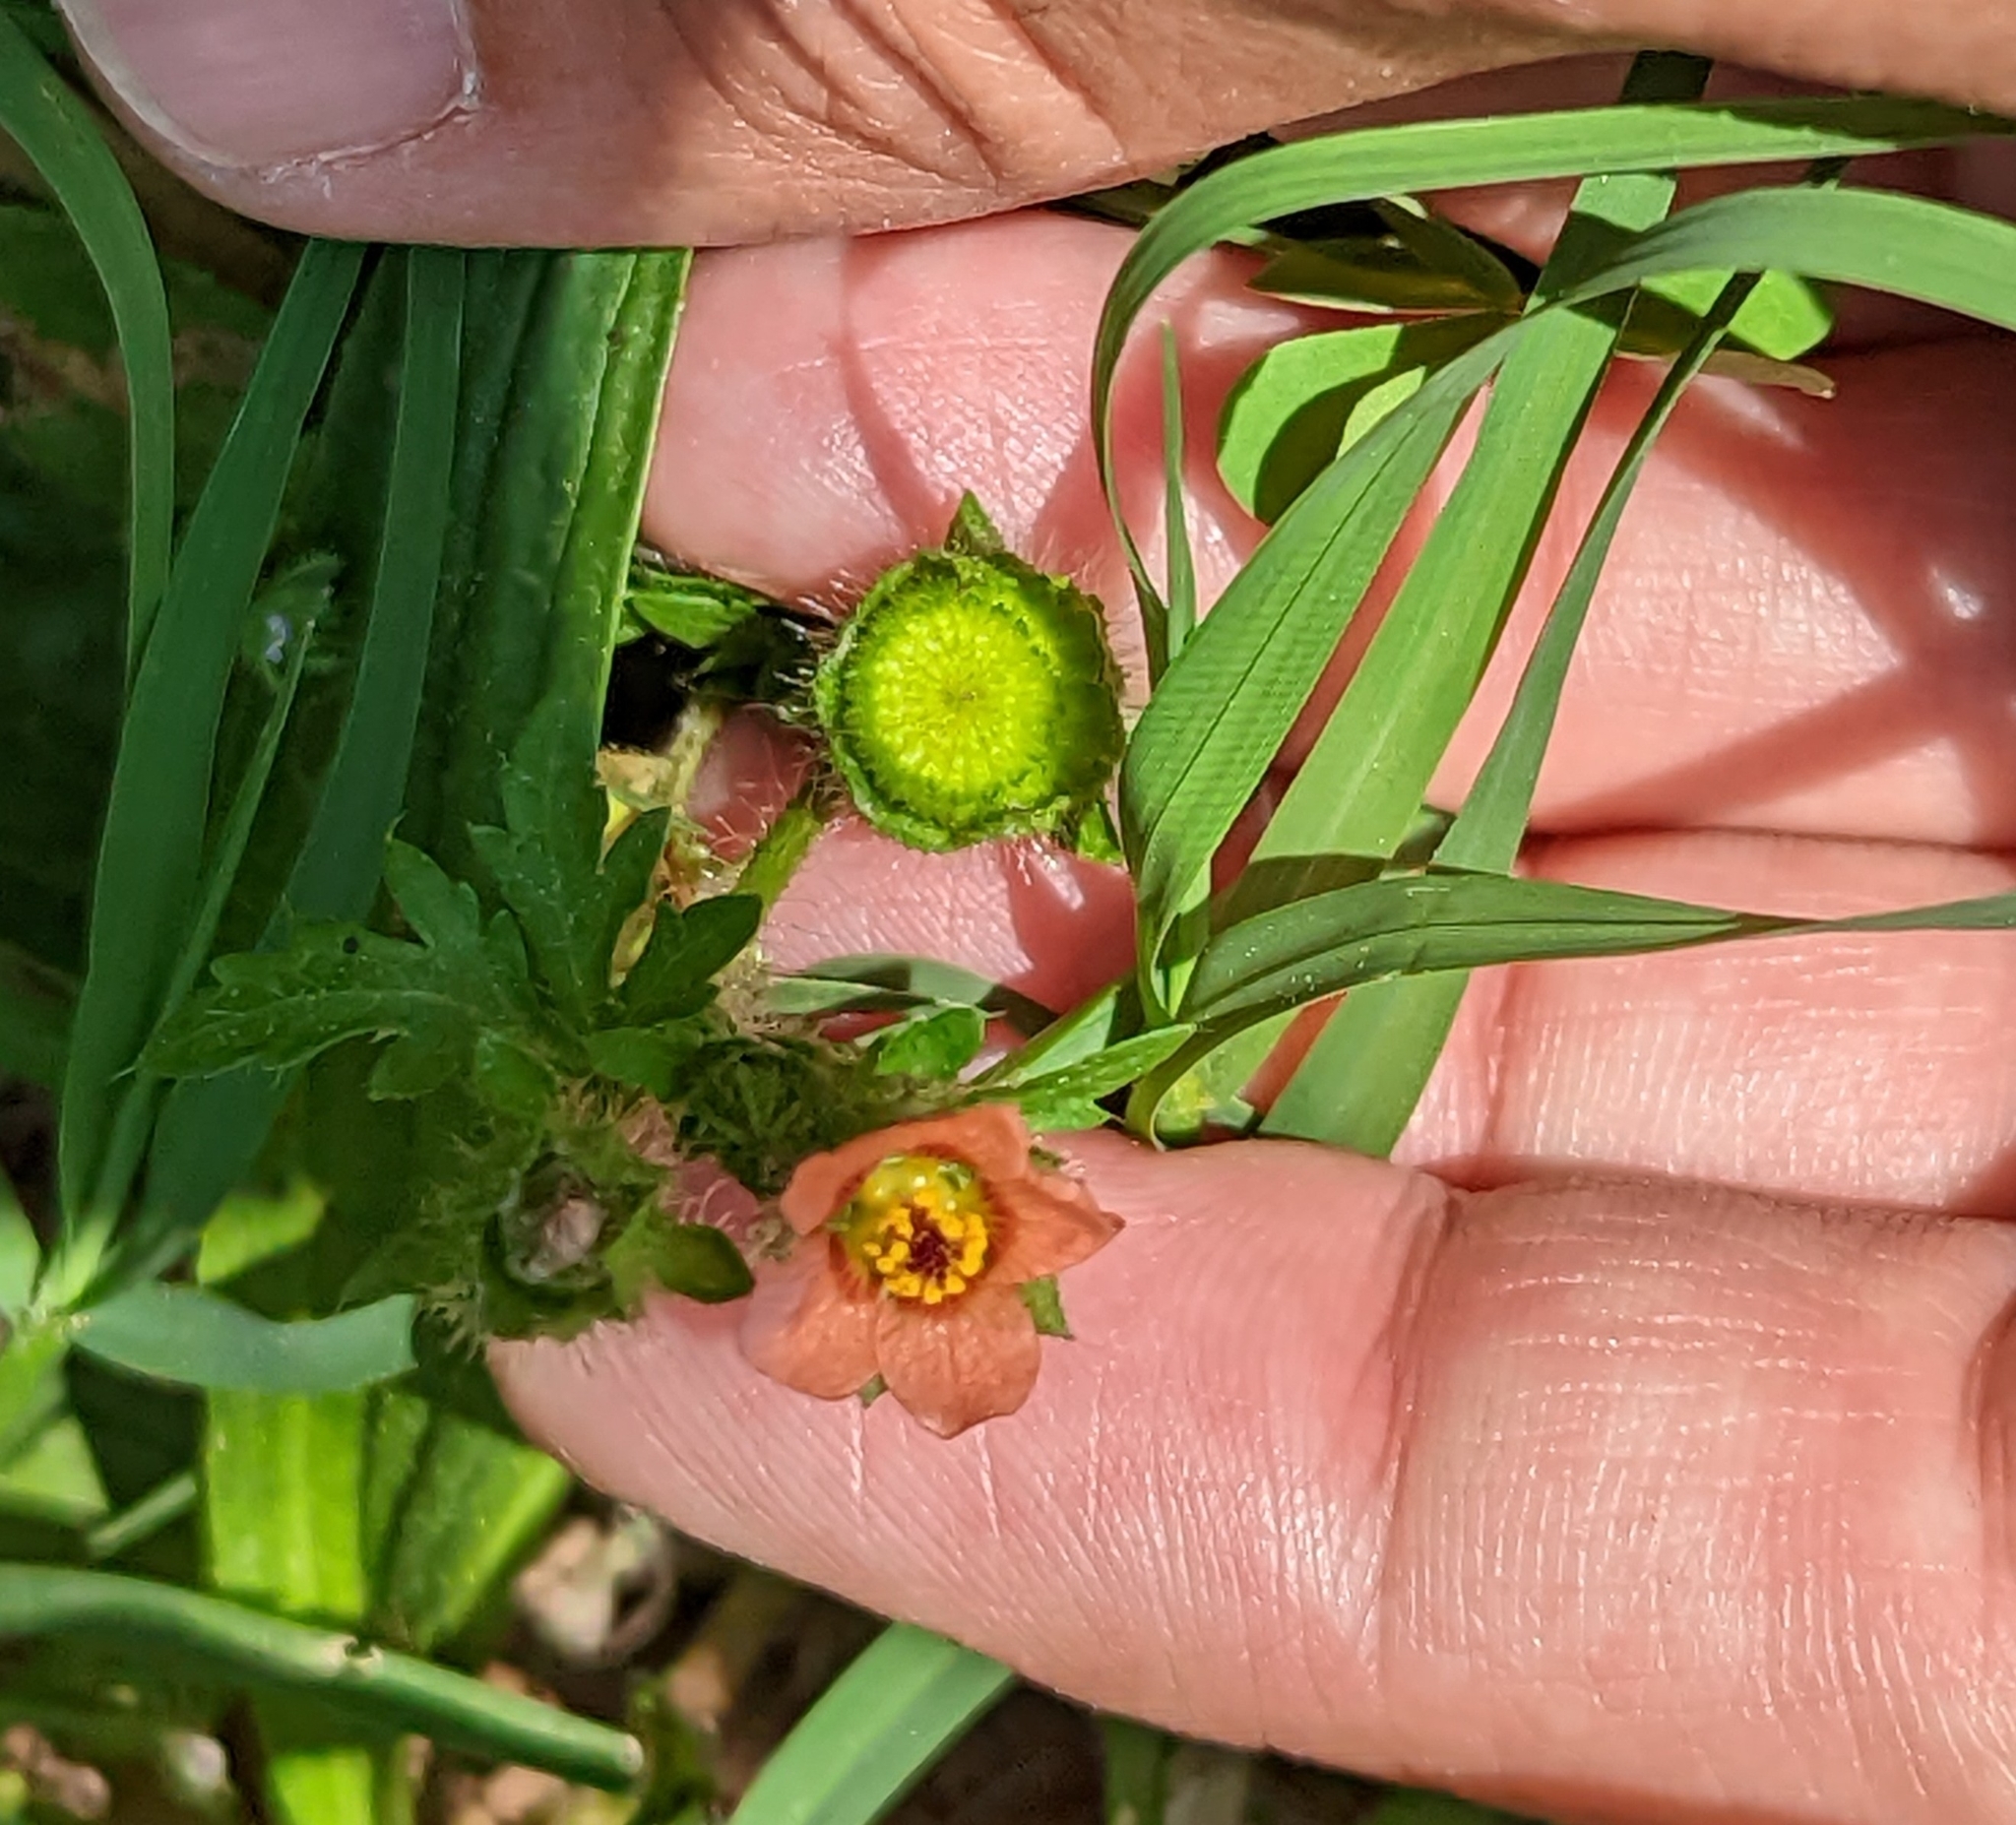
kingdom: Plantae
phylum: Tracheophyta
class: Magnoliopsida
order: Malvales
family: Malvaceae
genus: Modiola
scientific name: Modiola caroliniana
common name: Carolina bristlemallow
